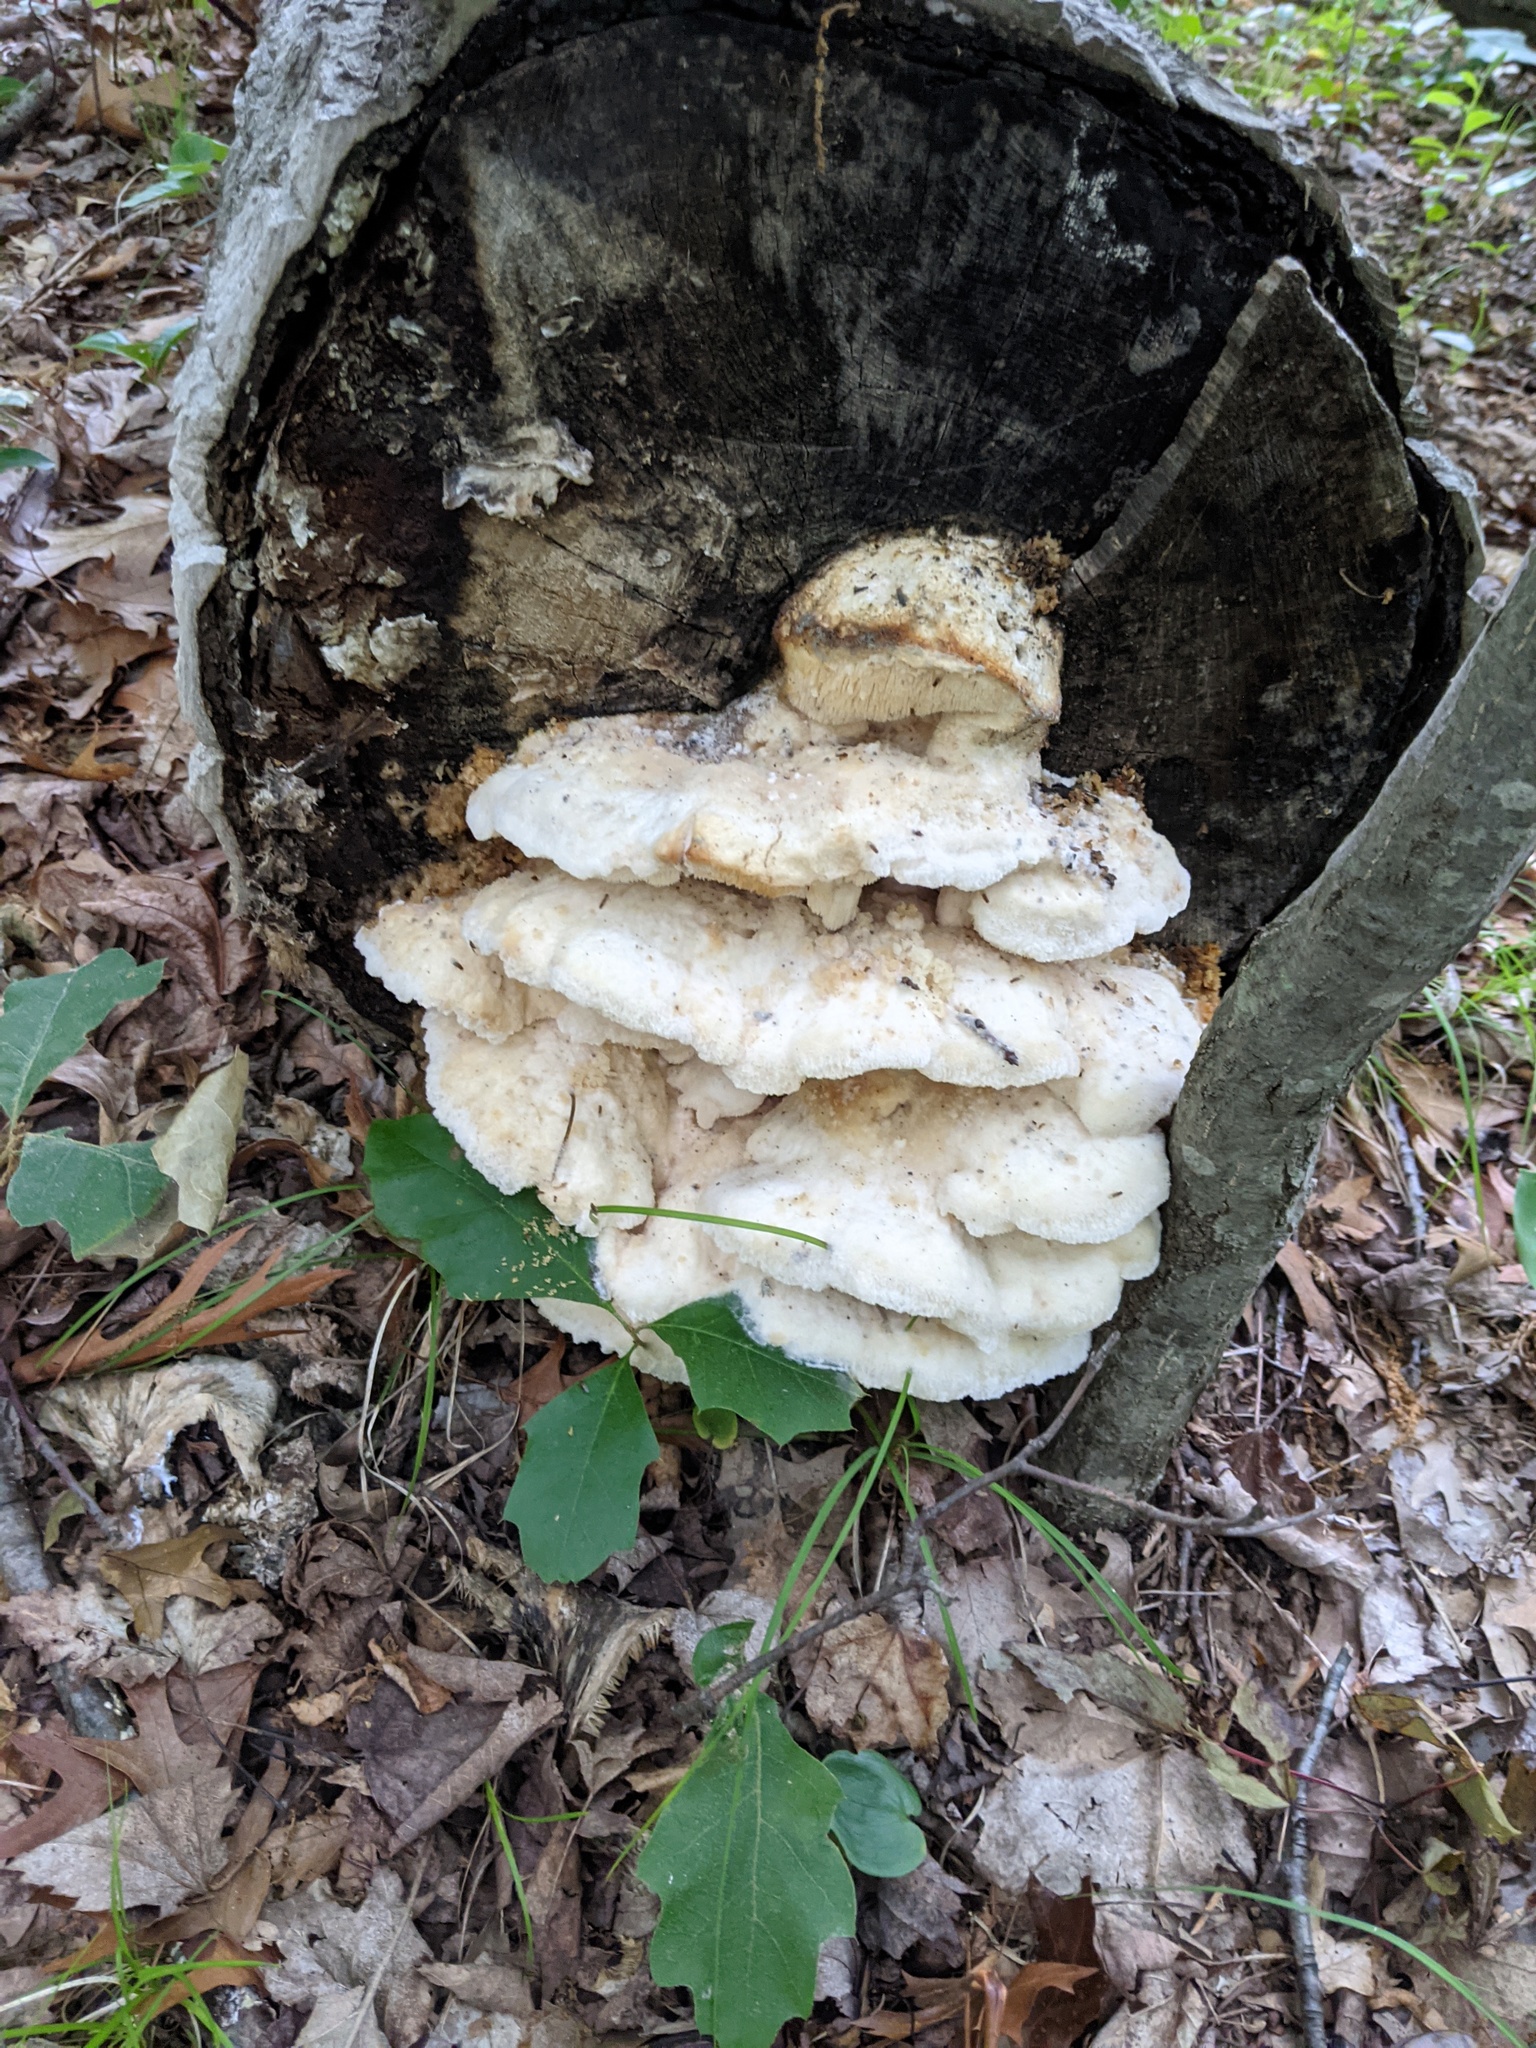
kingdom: Fungi
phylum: Basidiomycota
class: Agaricomycetes
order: Polyporales
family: Meruliaceae
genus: Climacodon
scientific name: Climacodon septentrionalis
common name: Northern tooth
